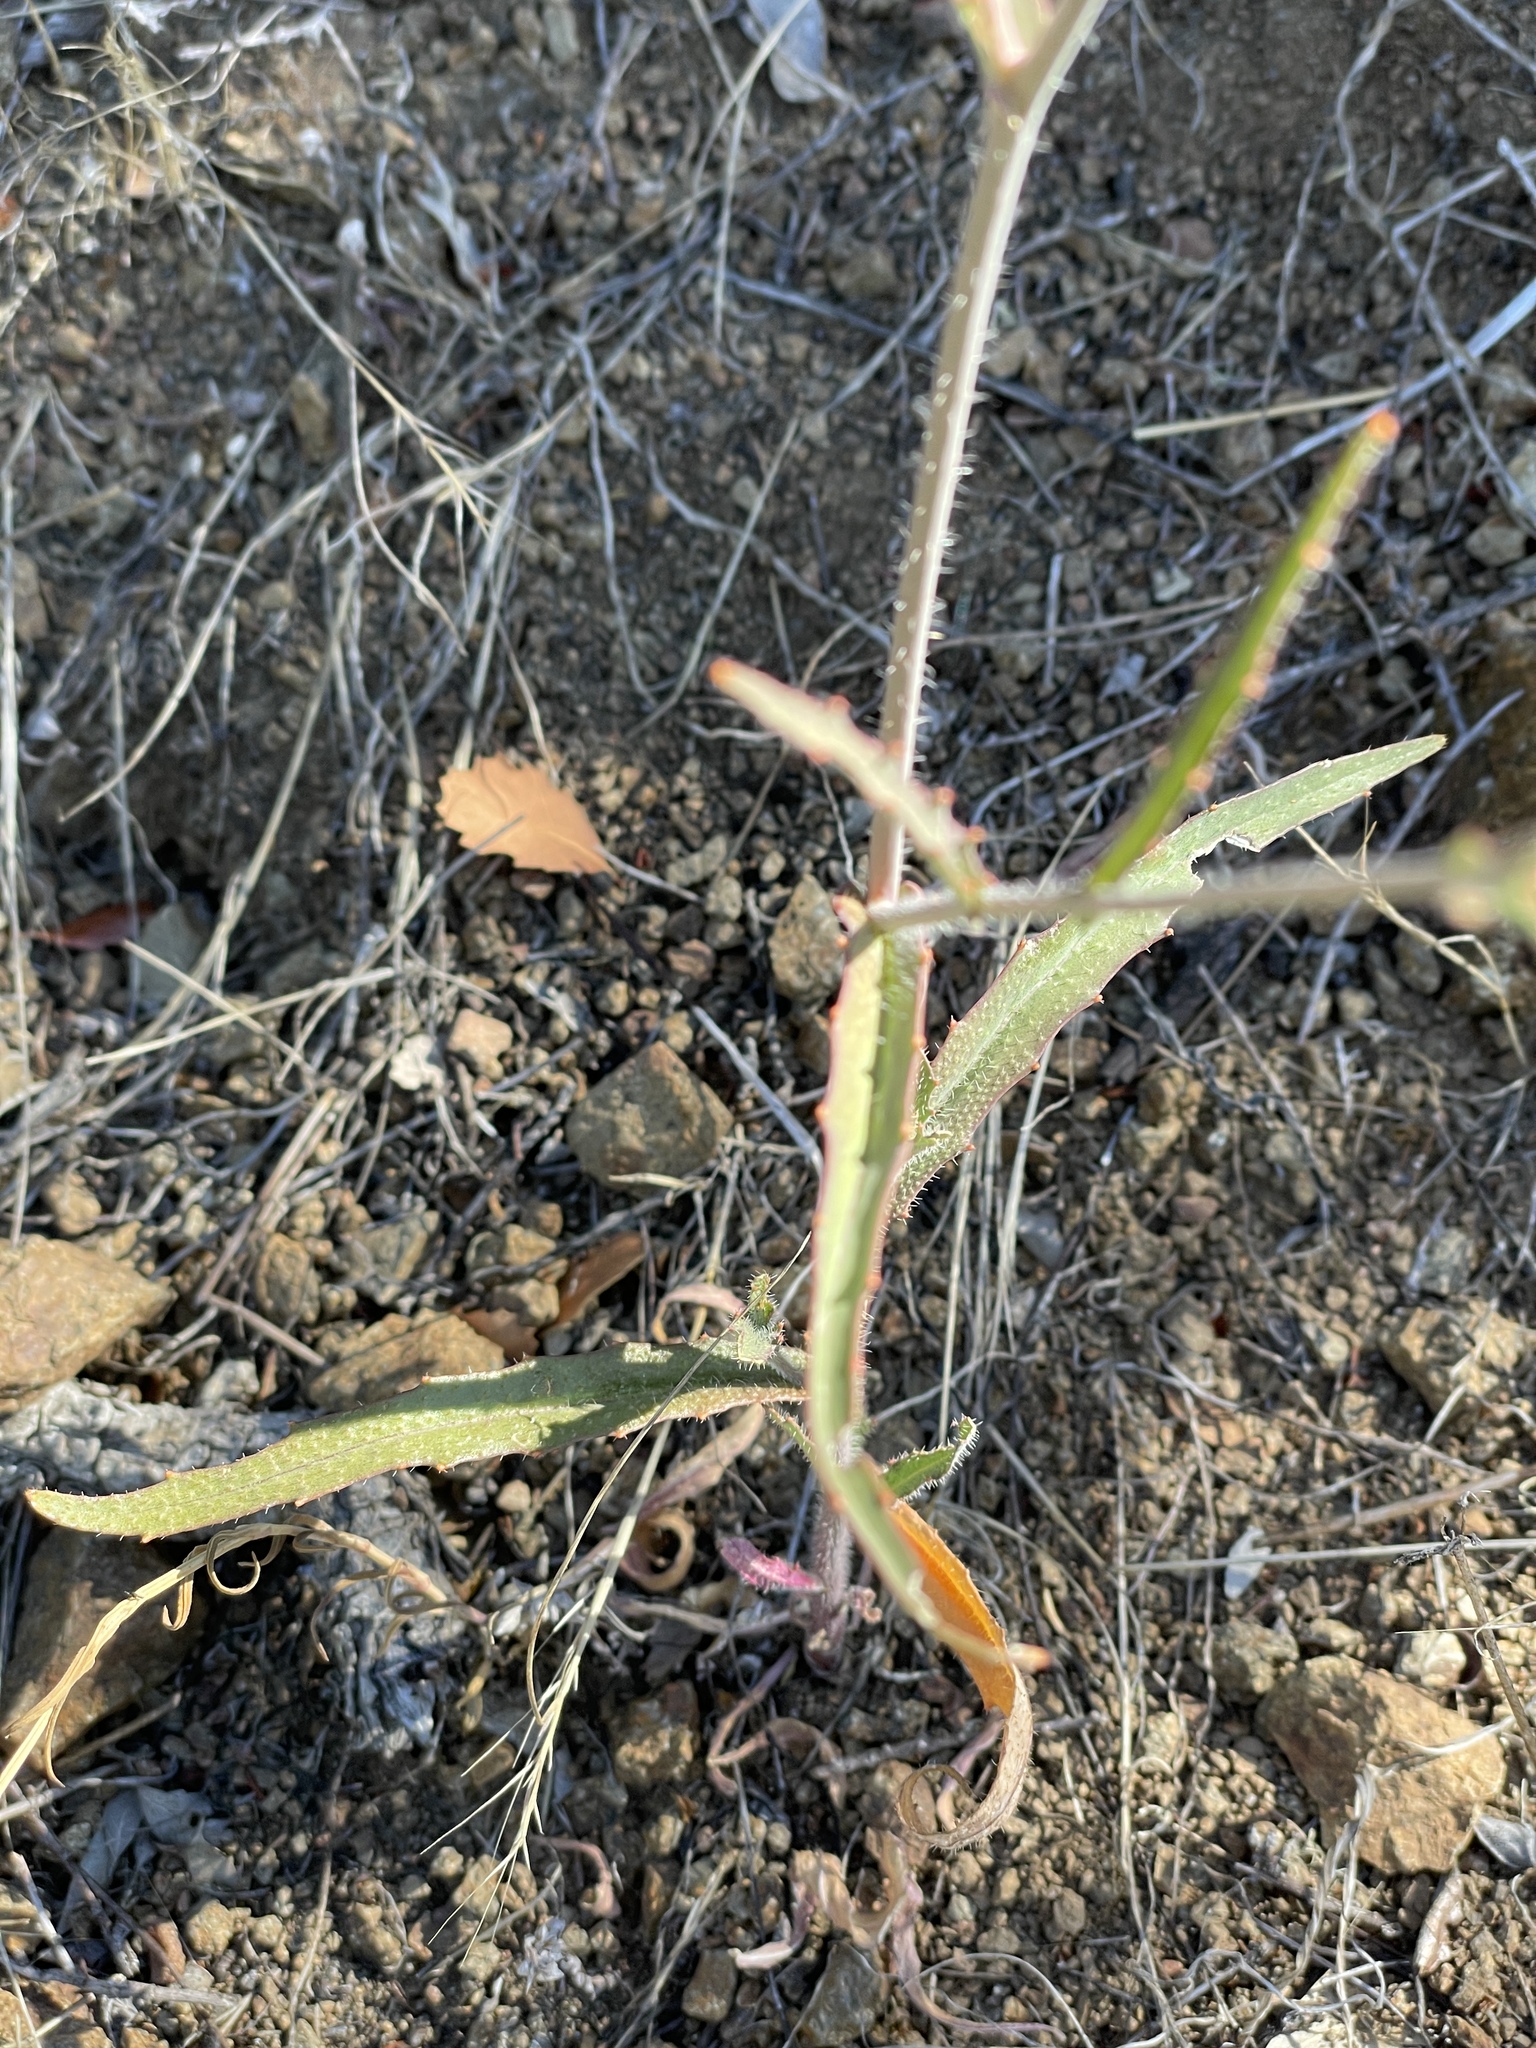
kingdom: Plantae
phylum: Tracheophyta
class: Magnoliopsida
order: Brassicales
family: Brassicaceae
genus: Streptanthus
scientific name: Streptanthus glandulosus
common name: Jewel-flower
